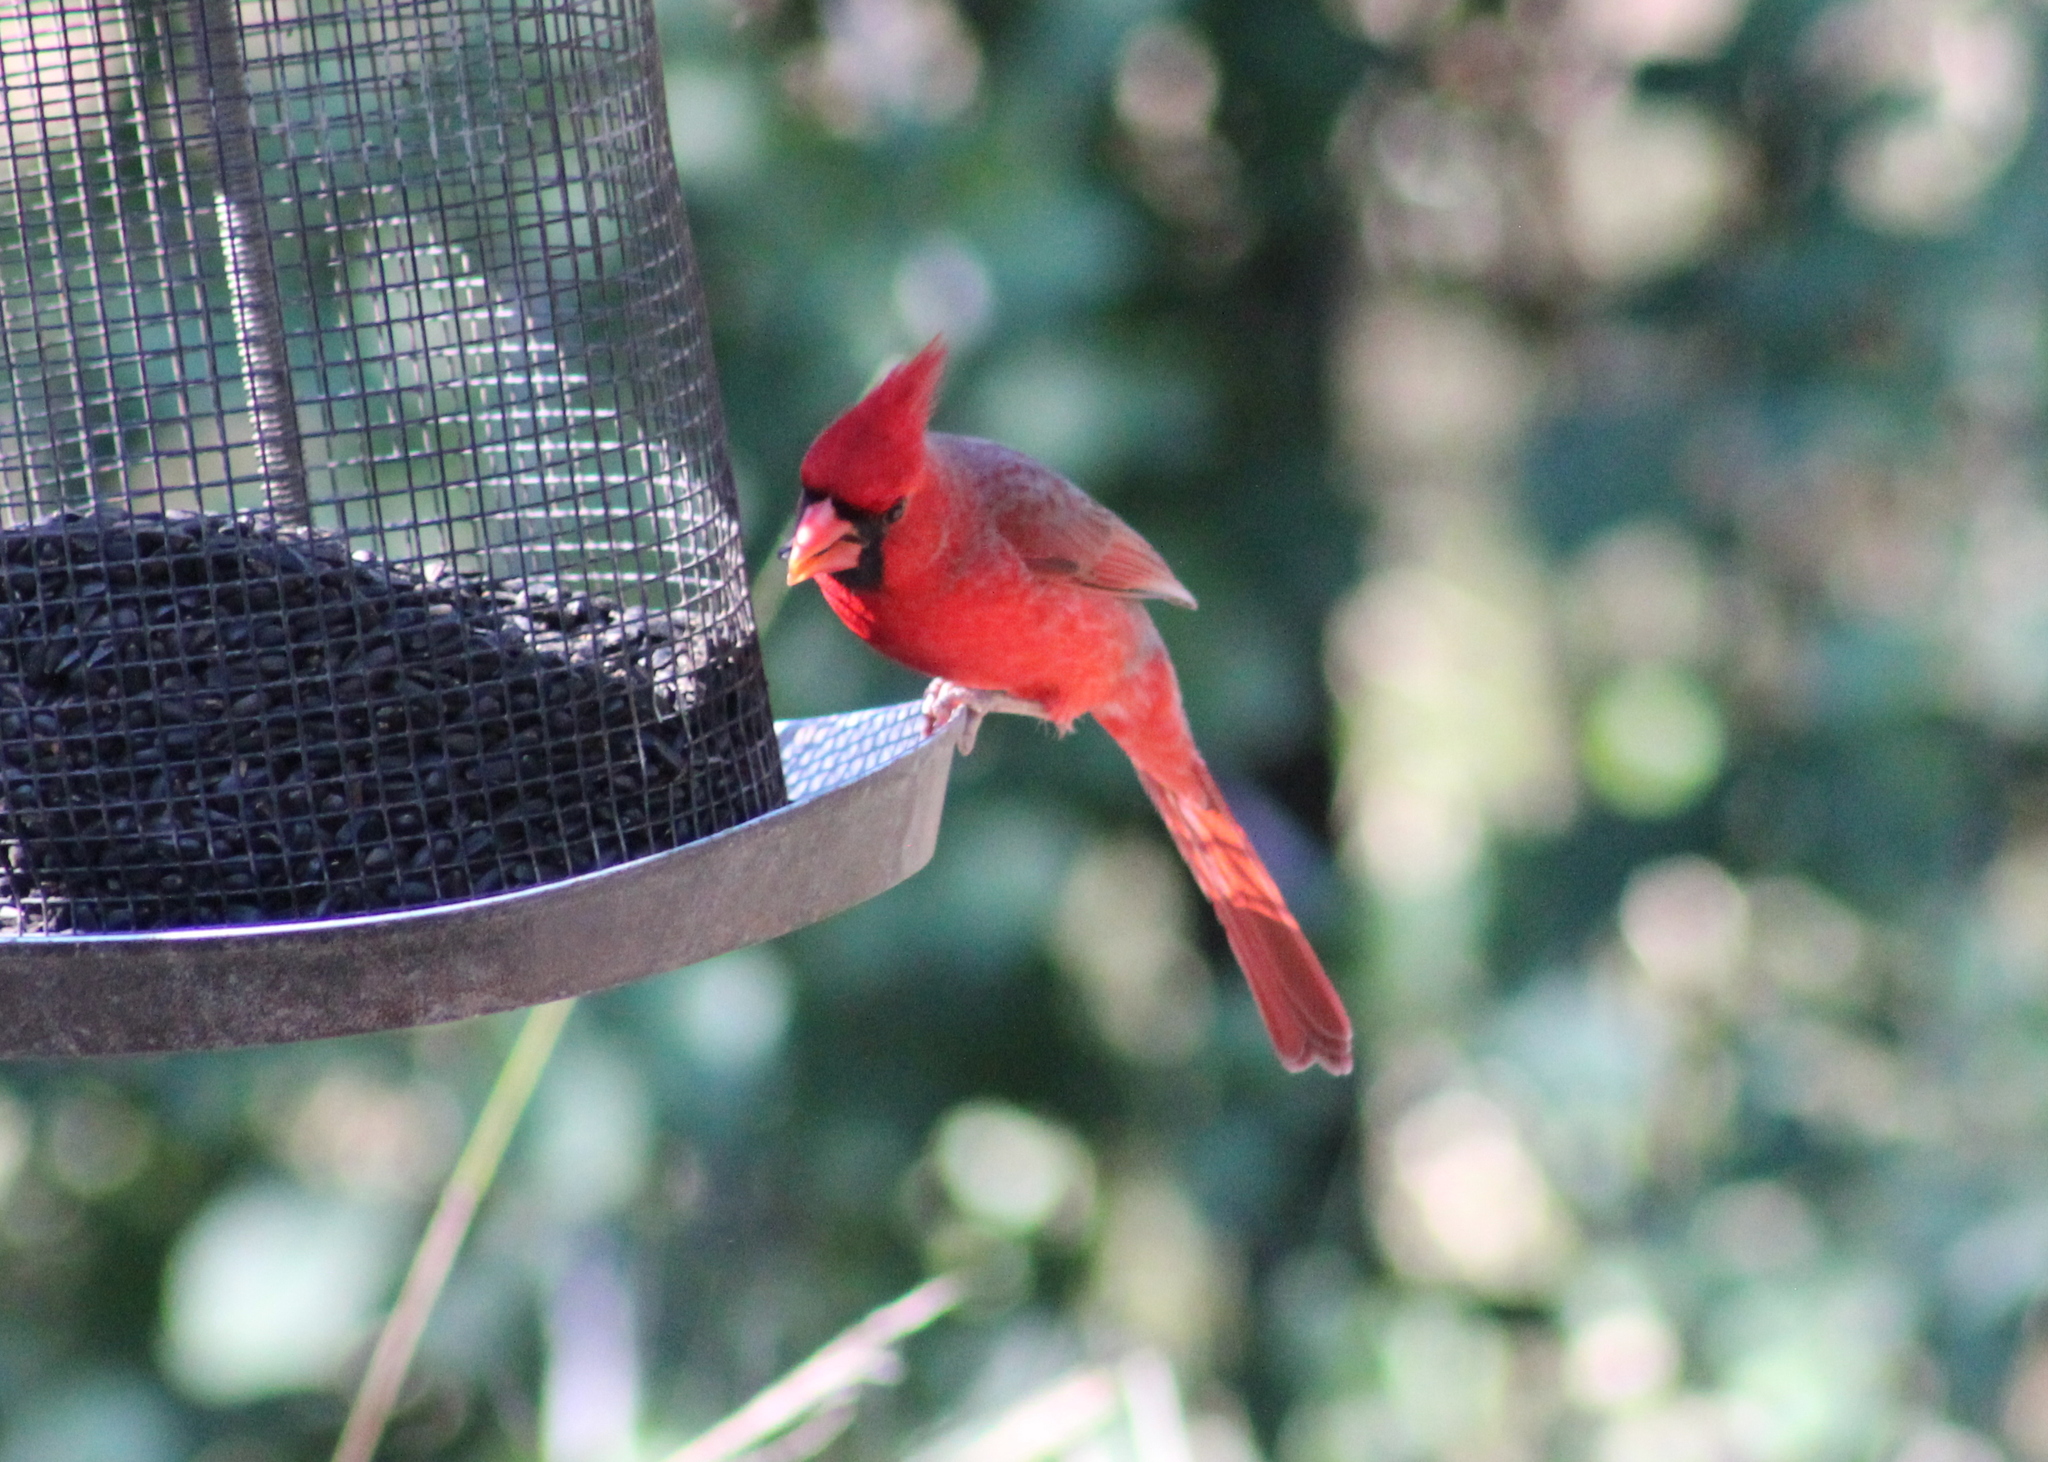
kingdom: Animalia
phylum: Chordata
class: Aves
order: Passeriformes
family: Cardinalidae
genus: Cardinalis
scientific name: Cardinalis cardinalis
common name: Northern cardinal
